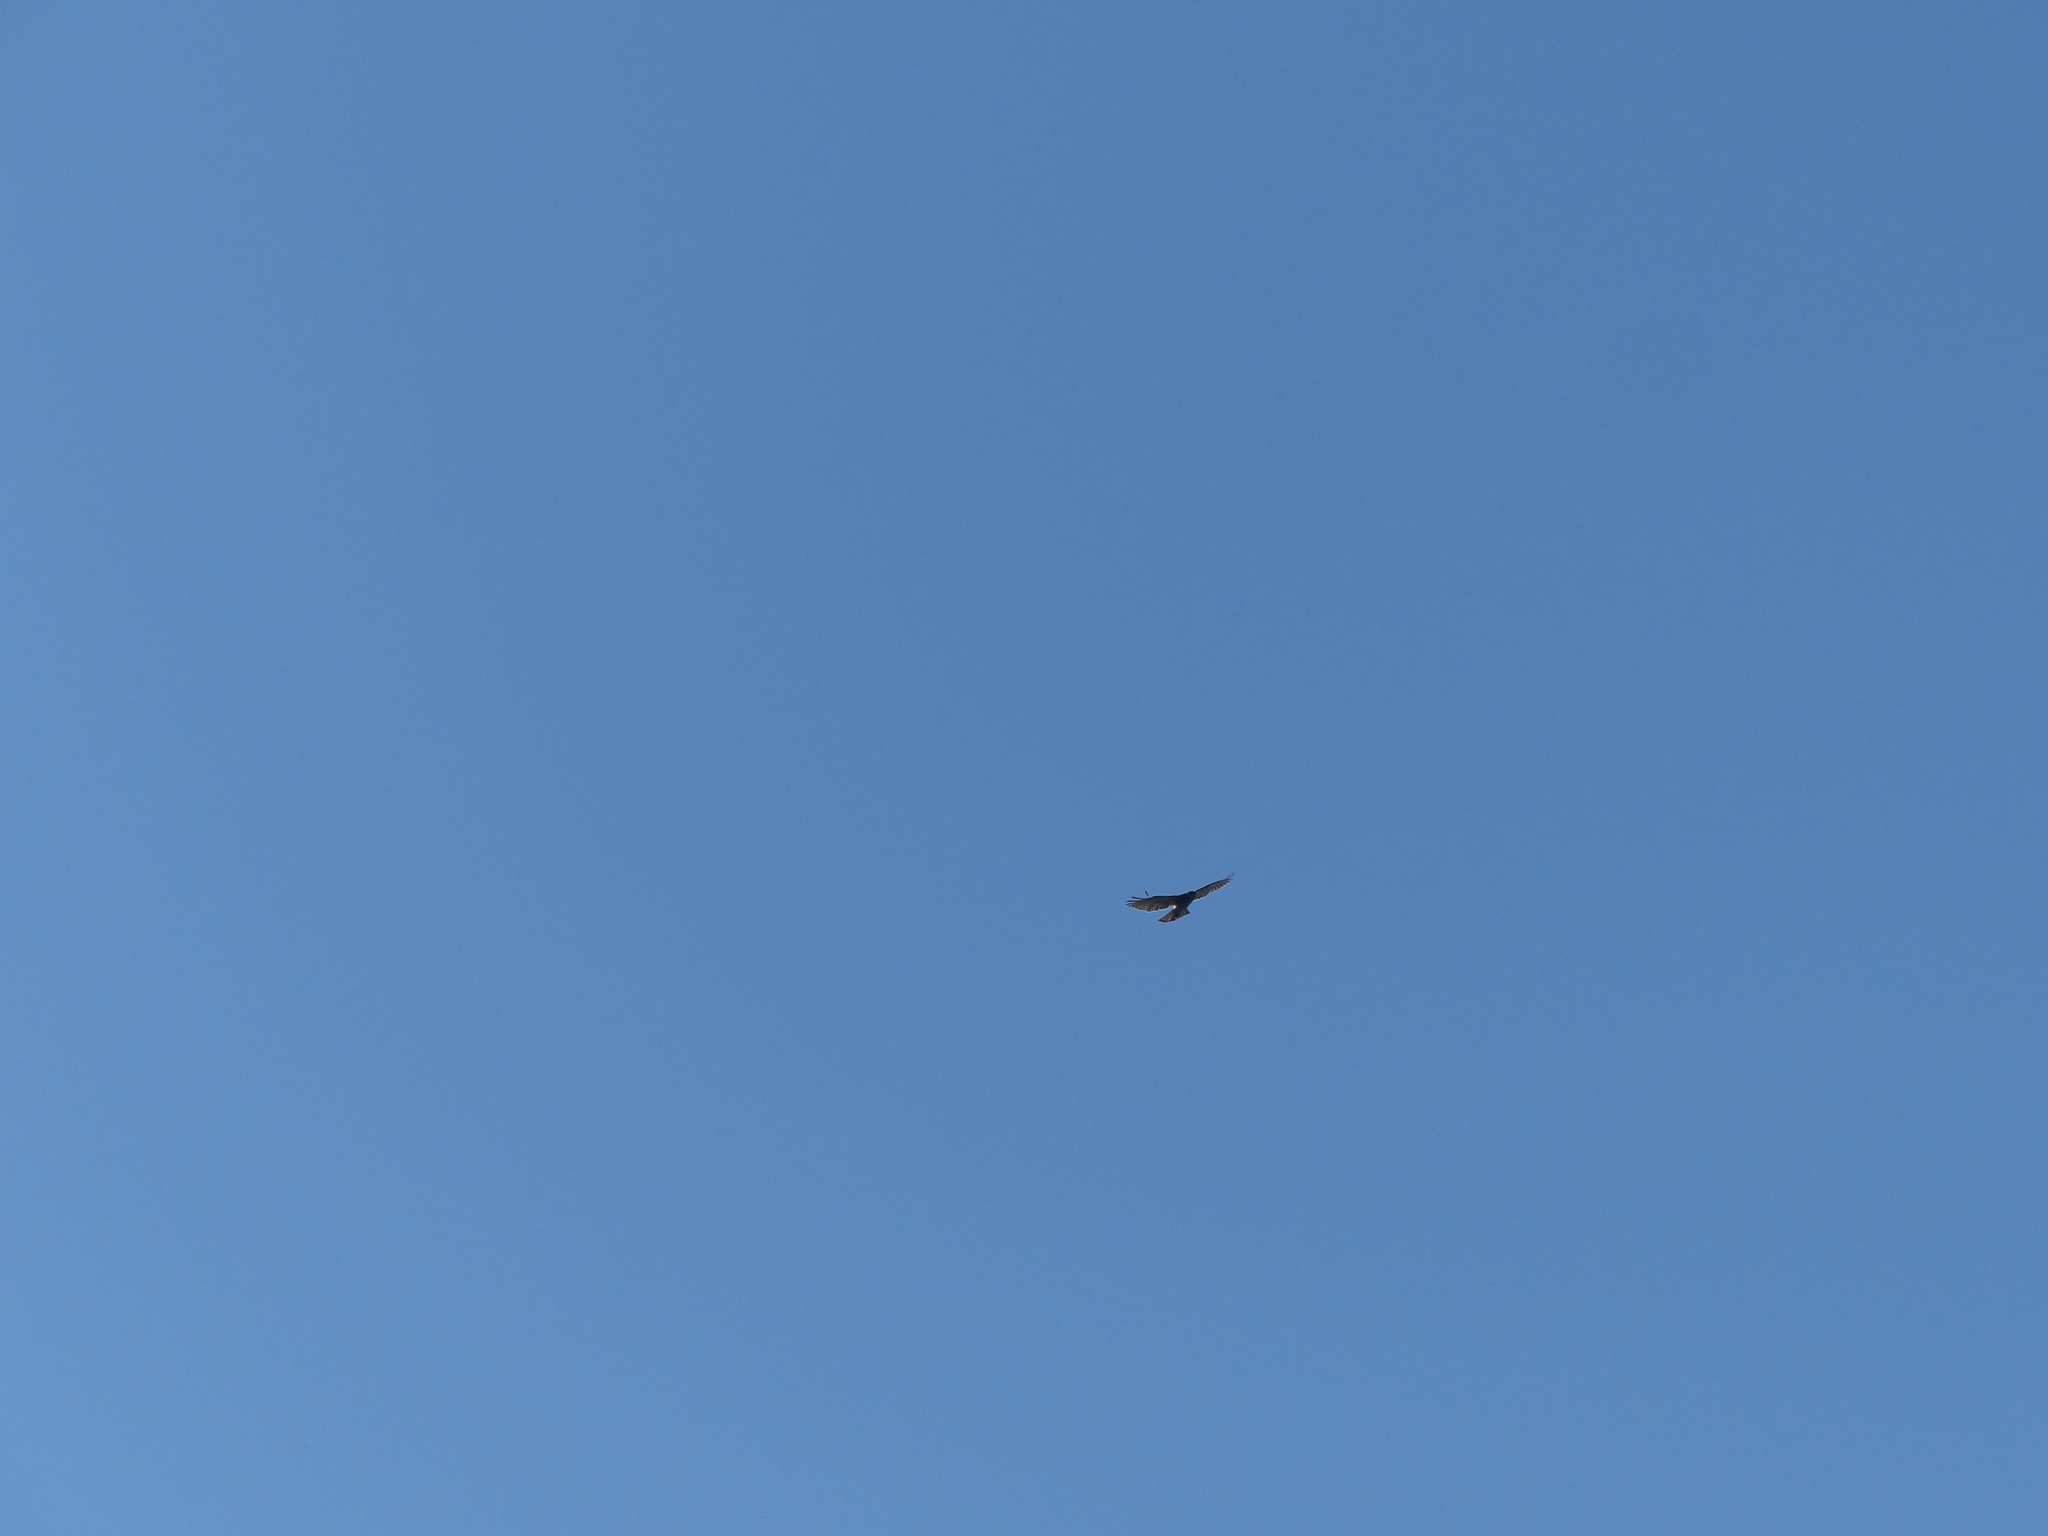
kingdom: Animalia
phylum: Chordata
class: Aves
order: Accipitriformes
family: Accipitridae
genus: Buteo
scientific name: Buteo platypterus
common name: Broad-winged hawk
